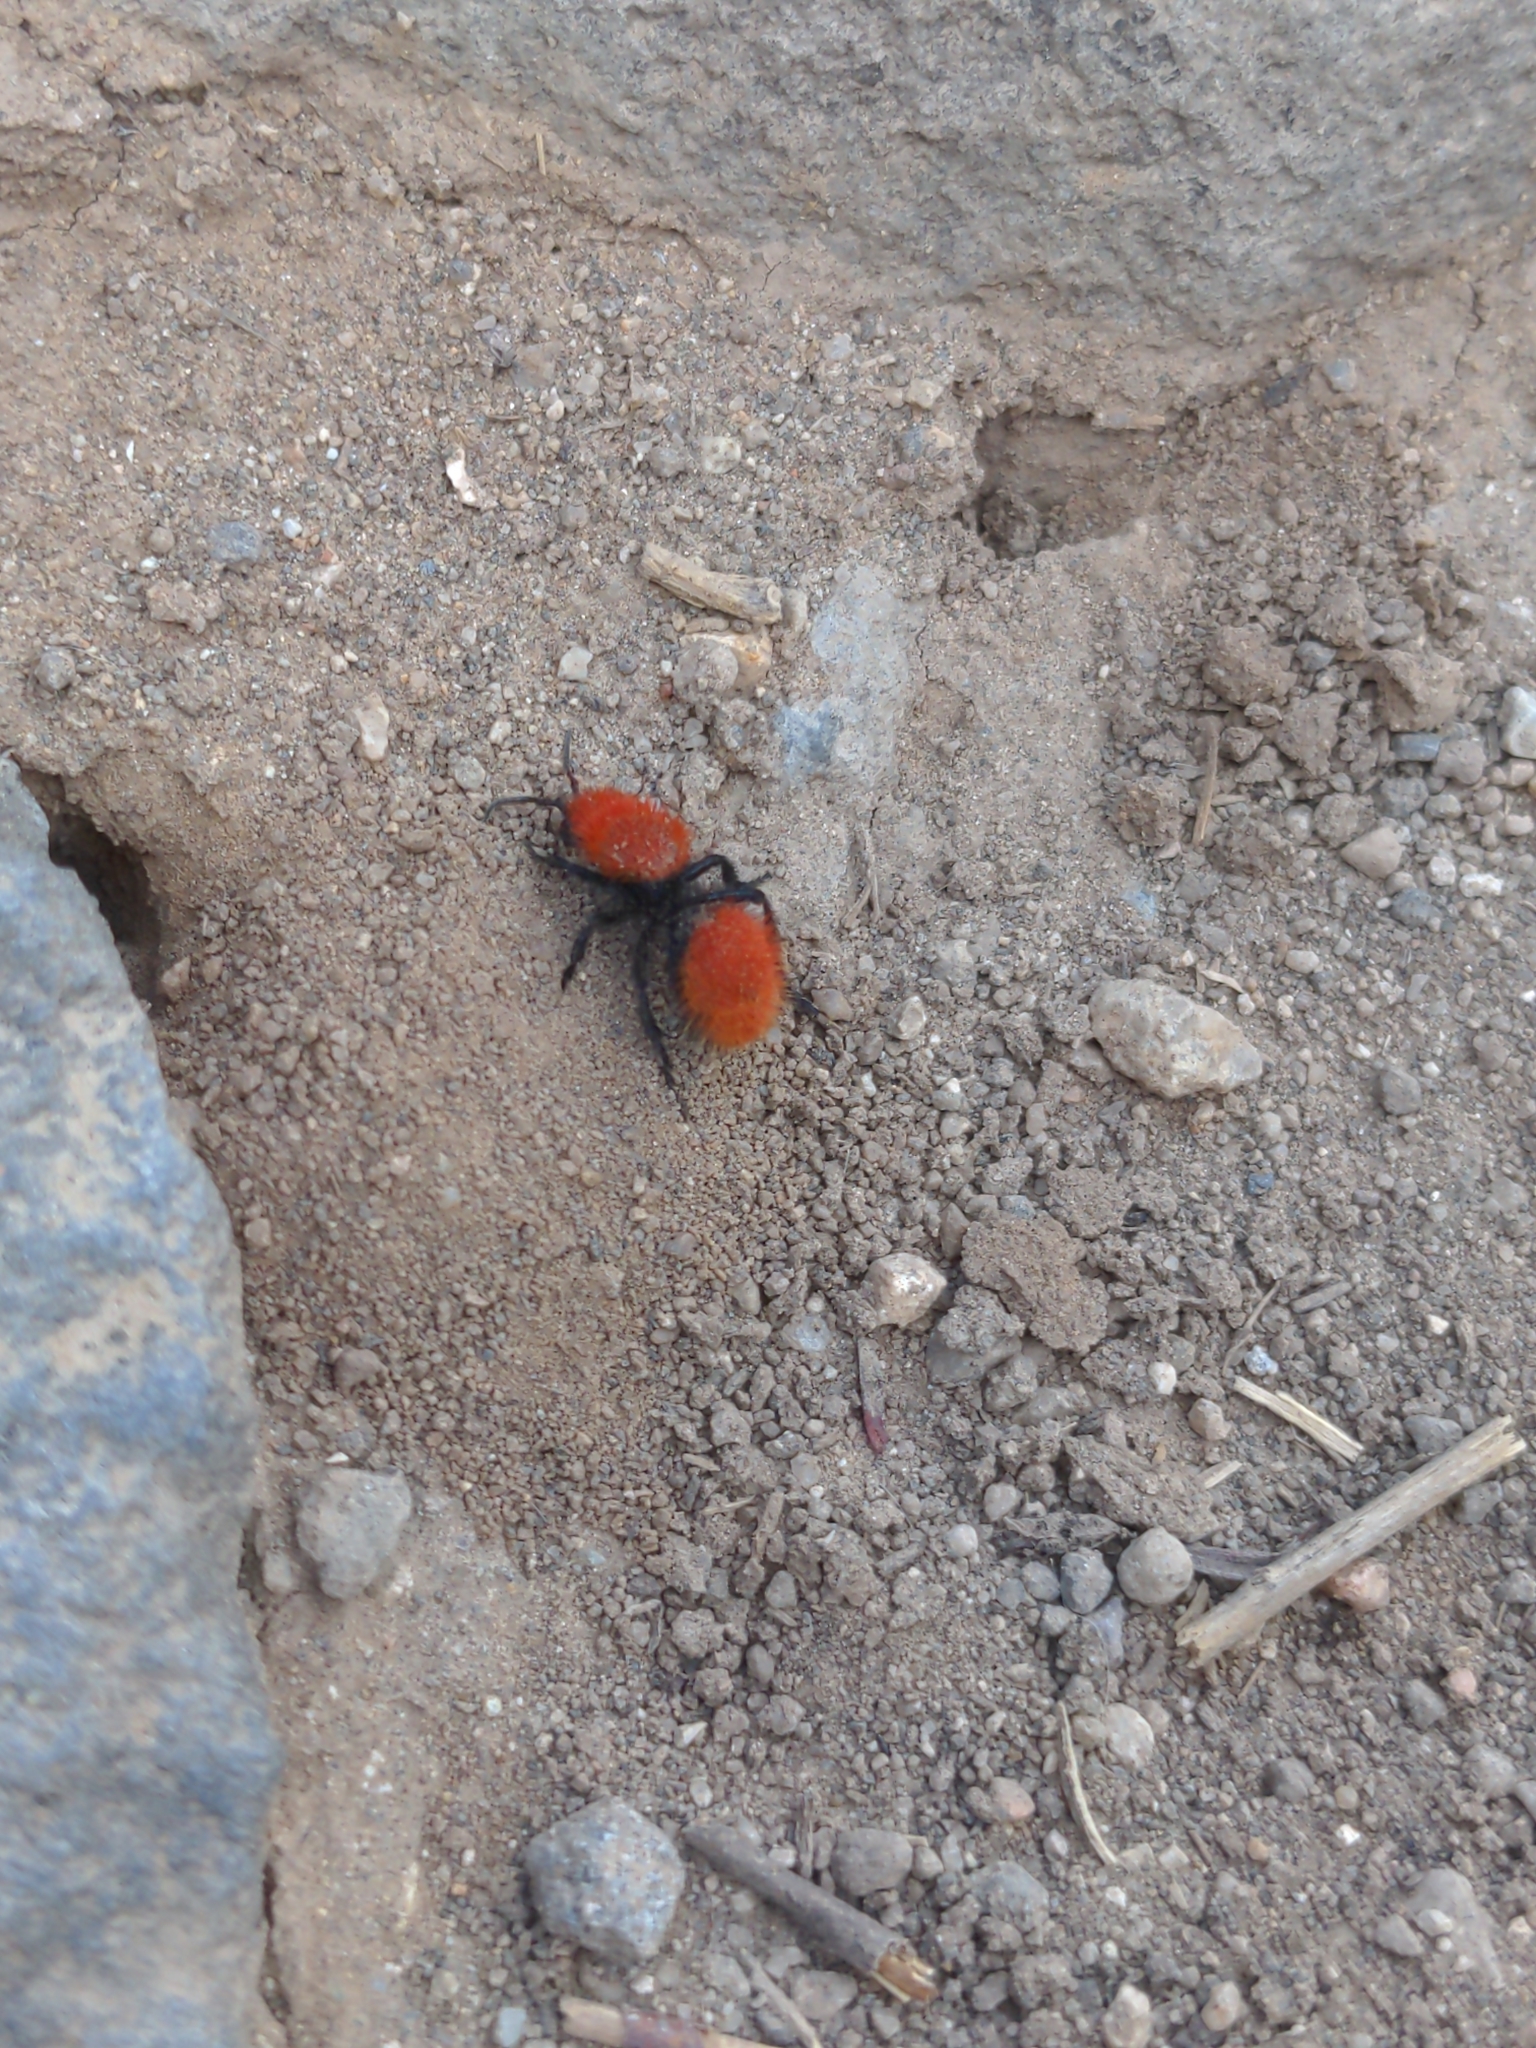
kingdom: Animalia
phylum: Arthropoda
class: Insecta
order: Hymenoptera
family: Mutillidae
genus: Dasymutilla
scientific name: Dasymutilla vestita
